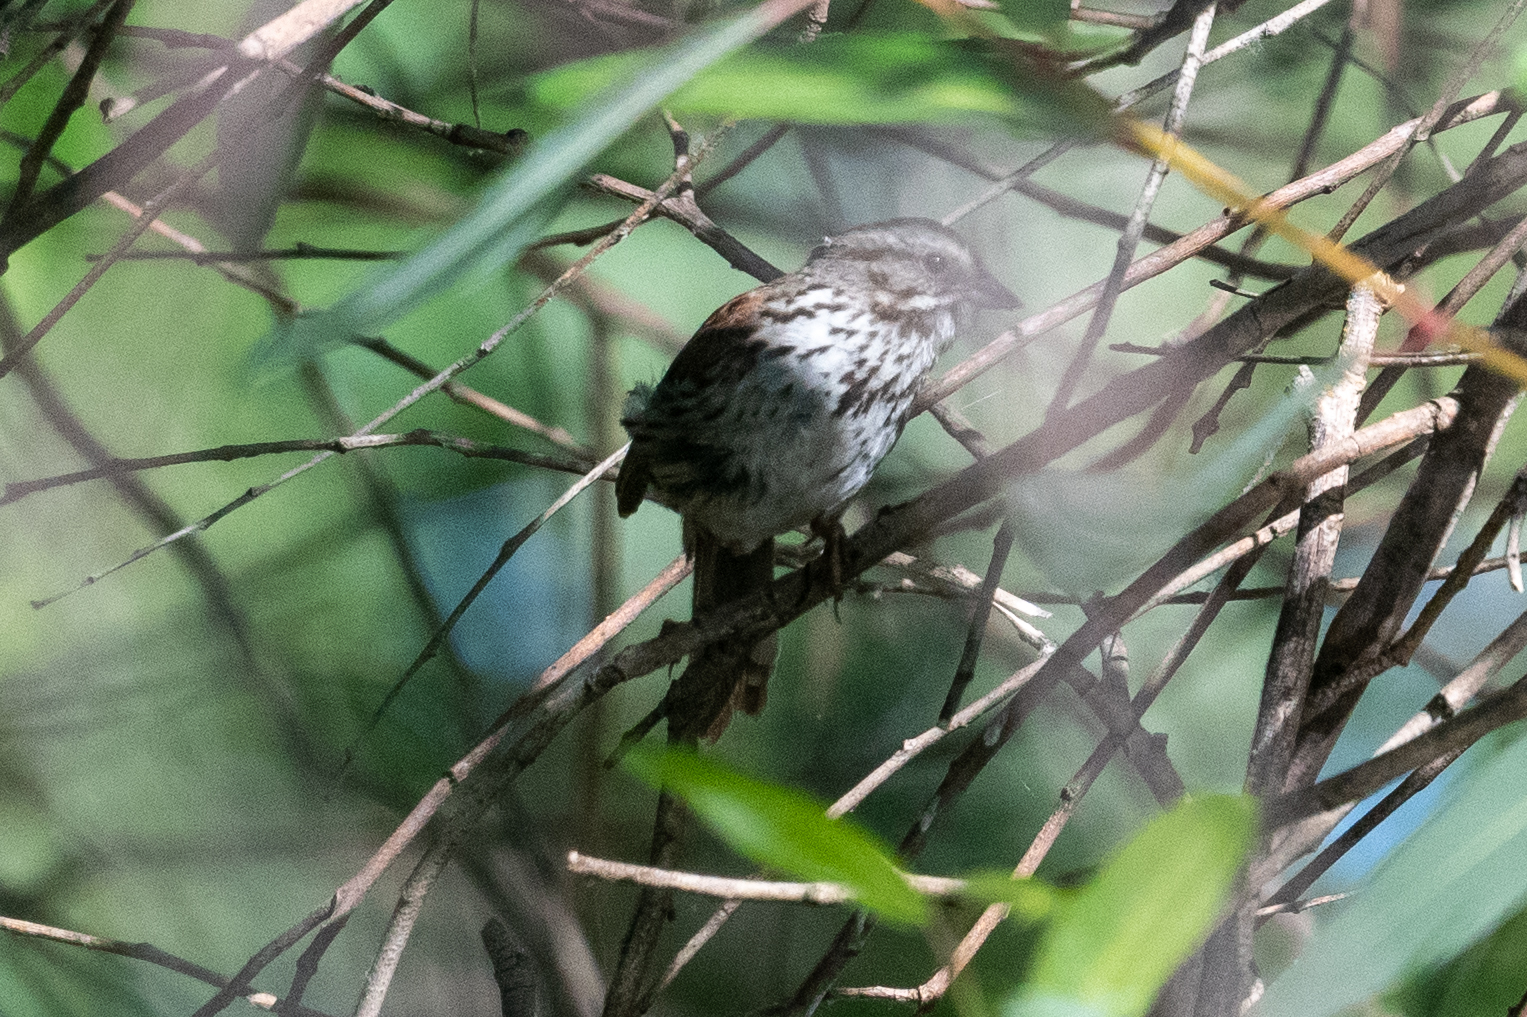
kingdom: Animalia
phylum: Chordata
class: Aves
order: Passeriformes
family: Passerellidae
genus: Melospiza
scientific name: Melospiza melodia
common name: Song sparrow
